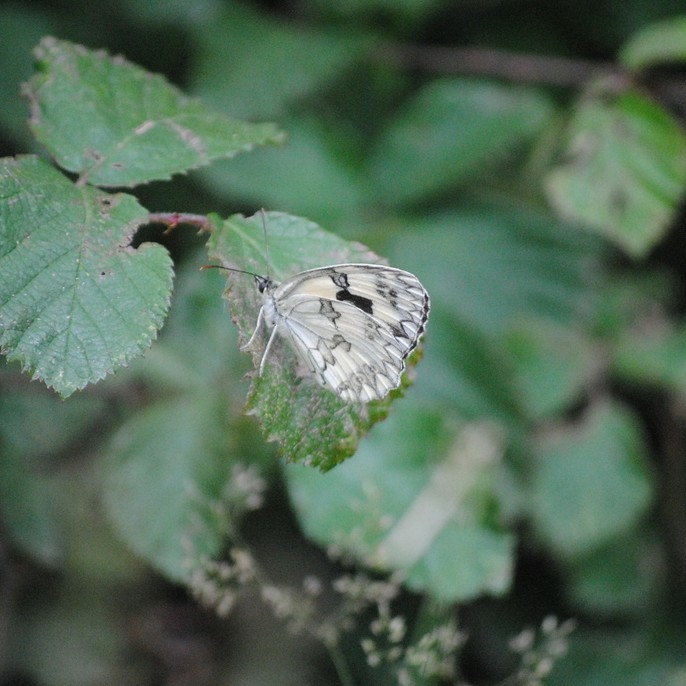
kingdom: Animalia
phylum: Arthropoda
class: Insecta
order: Lepidoptera
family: Nymphalidae
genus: Melanargia
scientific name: Melanargia lachesis
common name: Iberian marbled white
